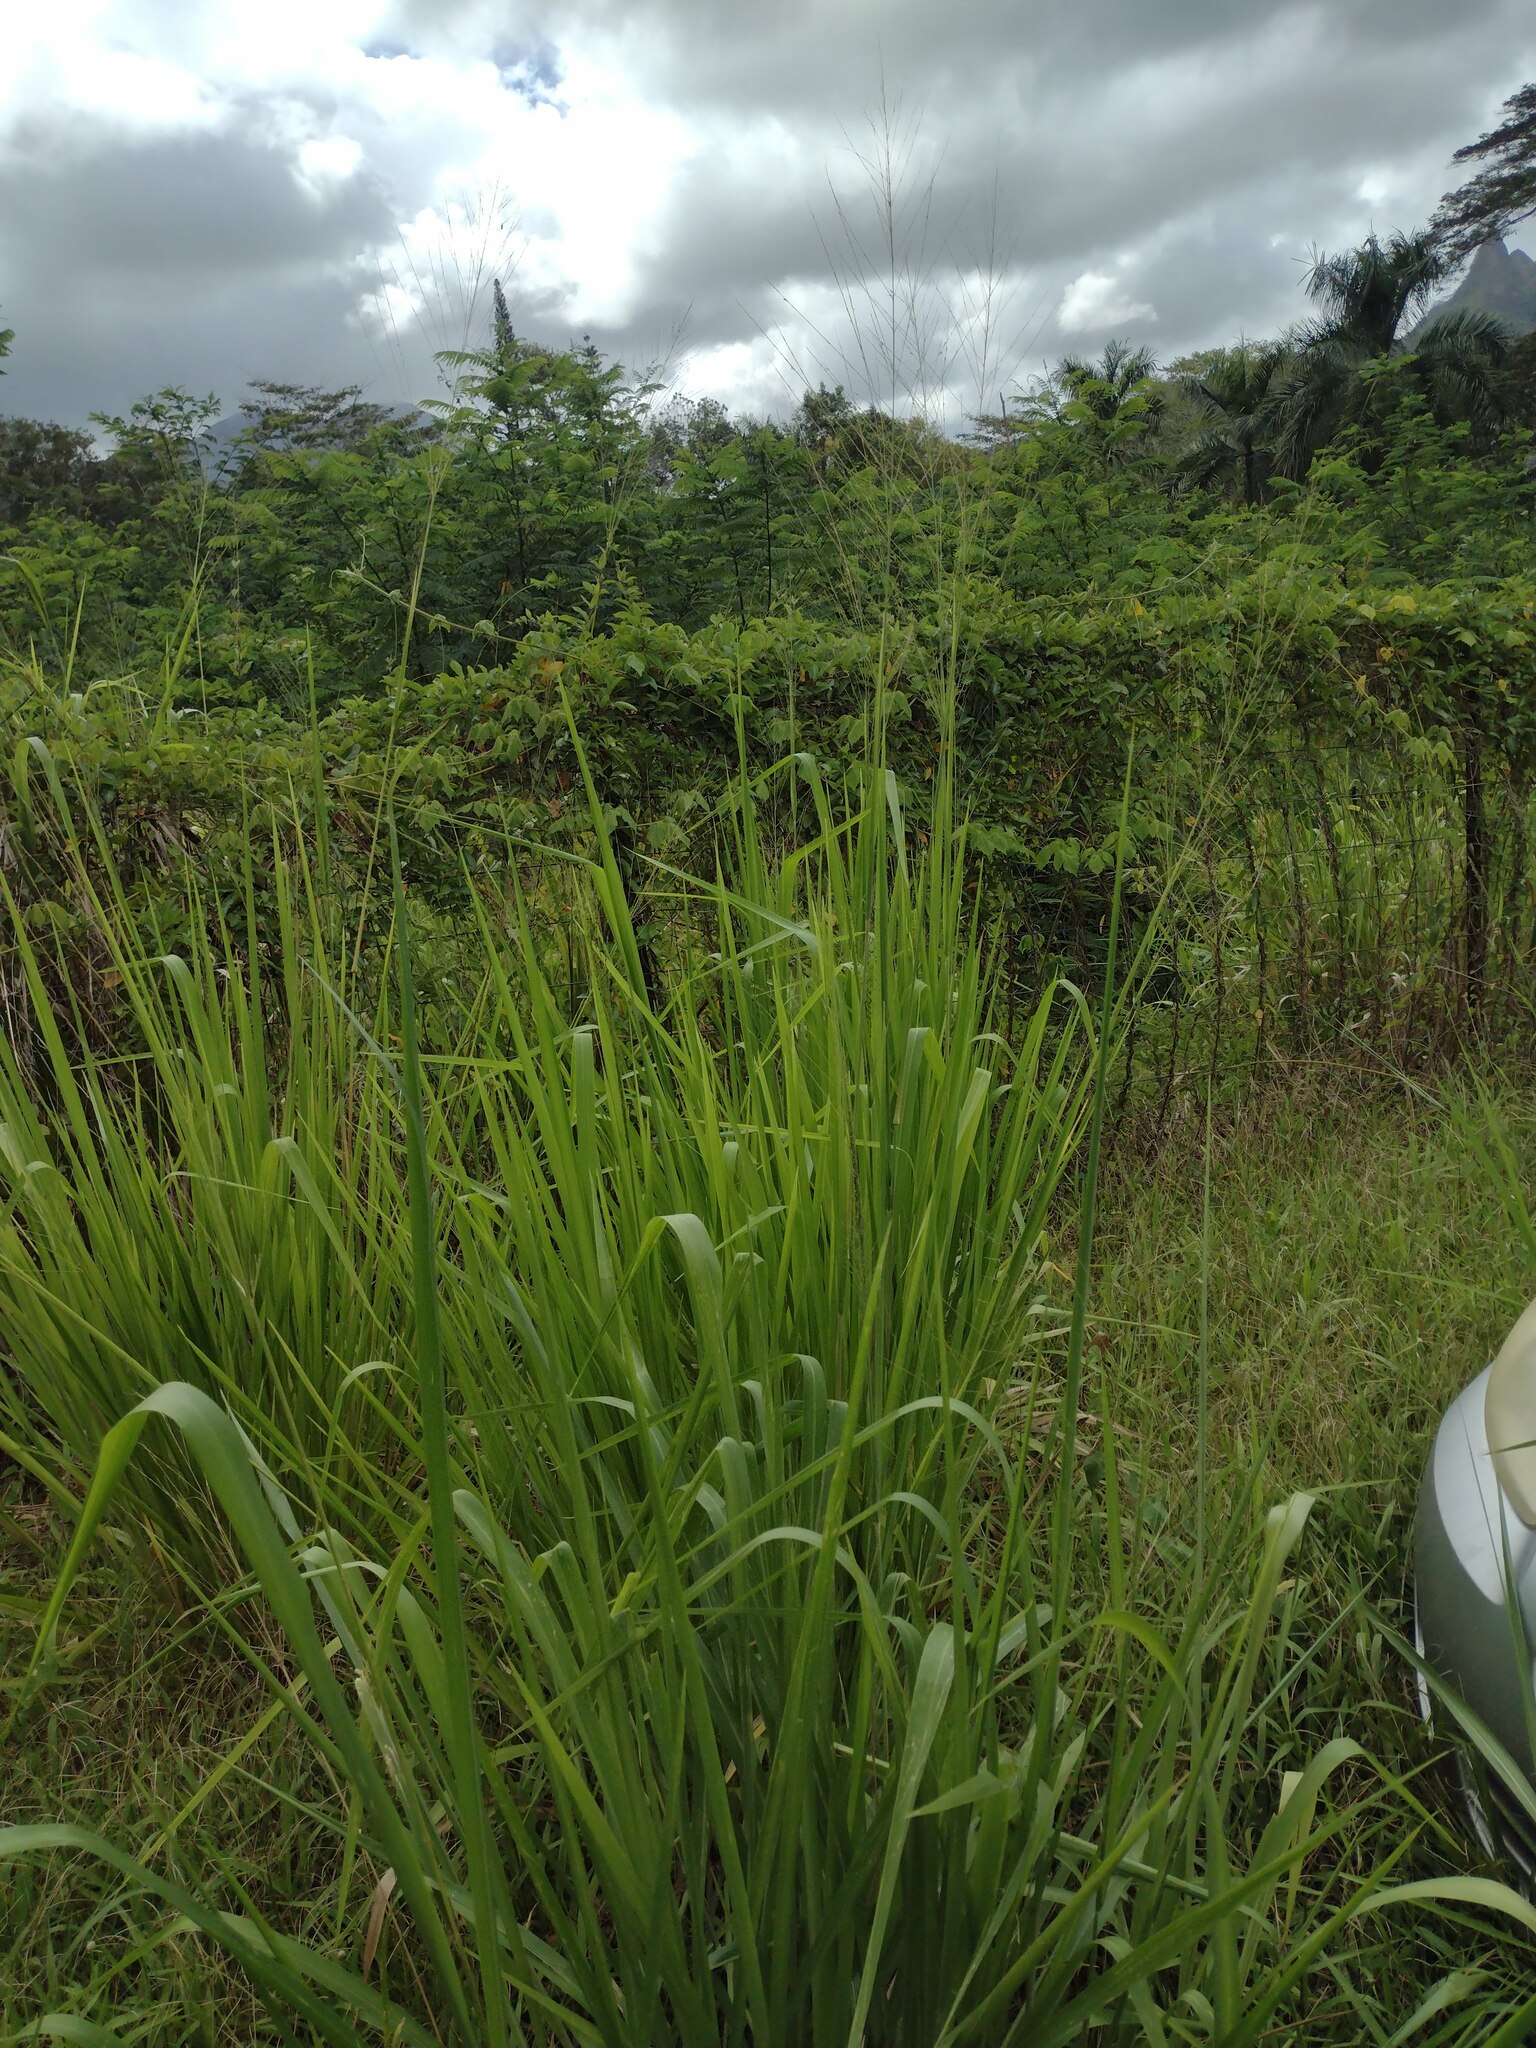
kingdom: Plantae
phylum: Tracheophyta
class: Liliopsida
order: Poales
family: Poaceae
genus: Megathyrsus
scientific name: Megathyrsus maximus
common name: Guineagrass
